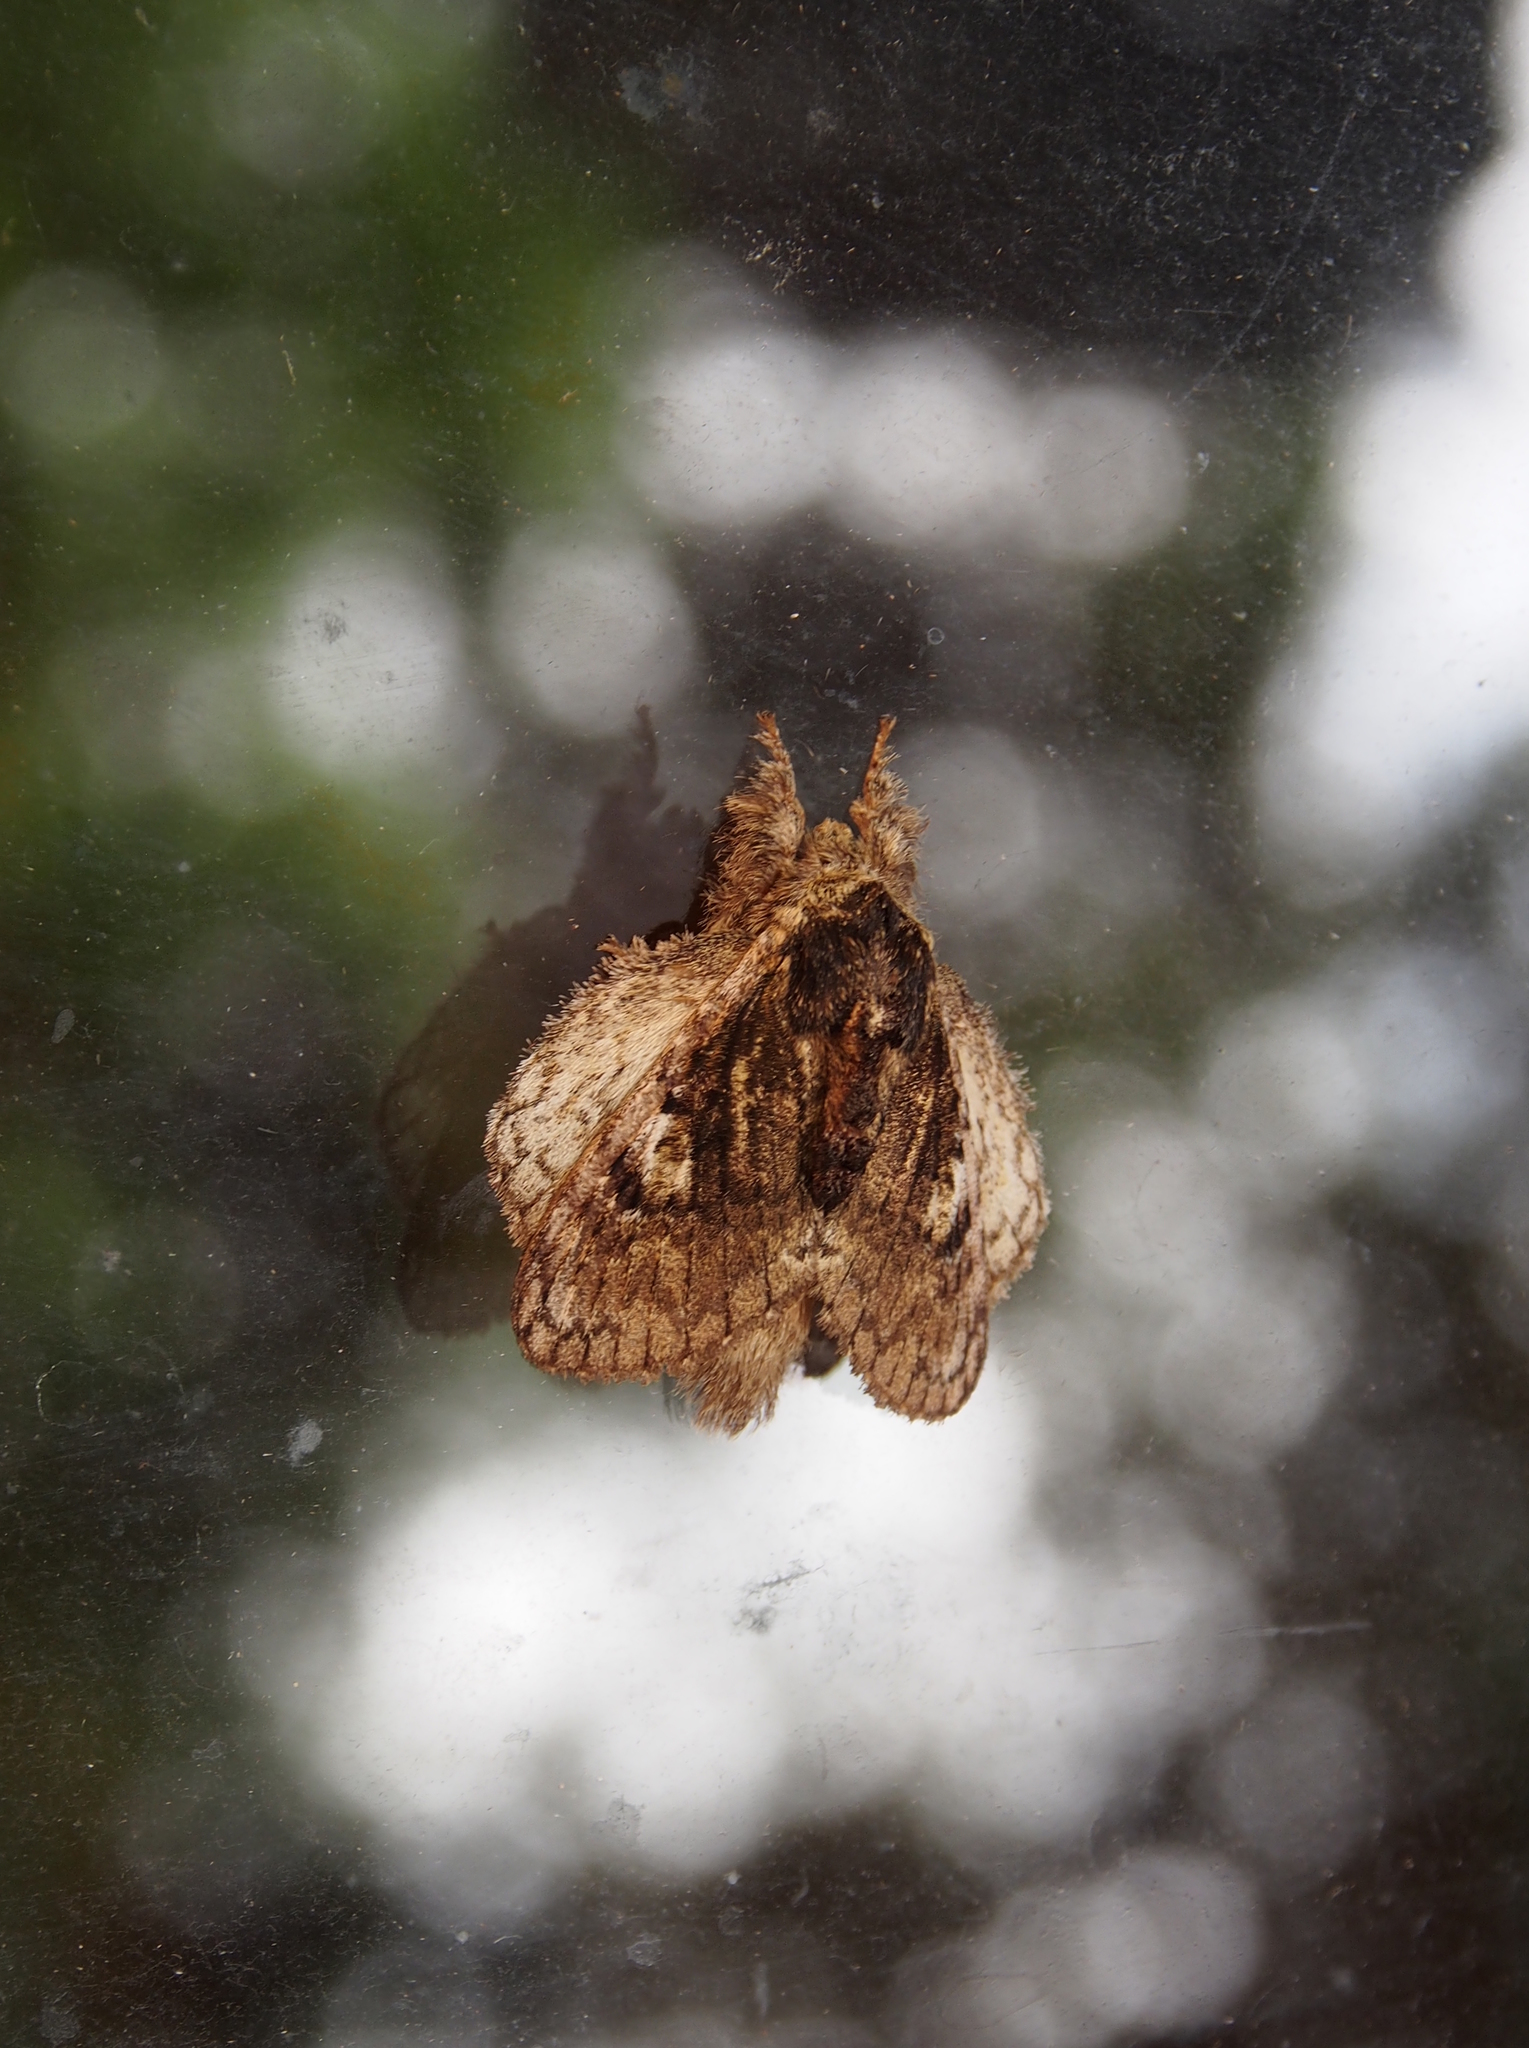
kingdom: Animalia
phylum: Arthropoda
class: Insecta
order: Lepidoptera
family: Lasiocampidae
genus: Euglyphis
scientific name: Euglyphis barda
